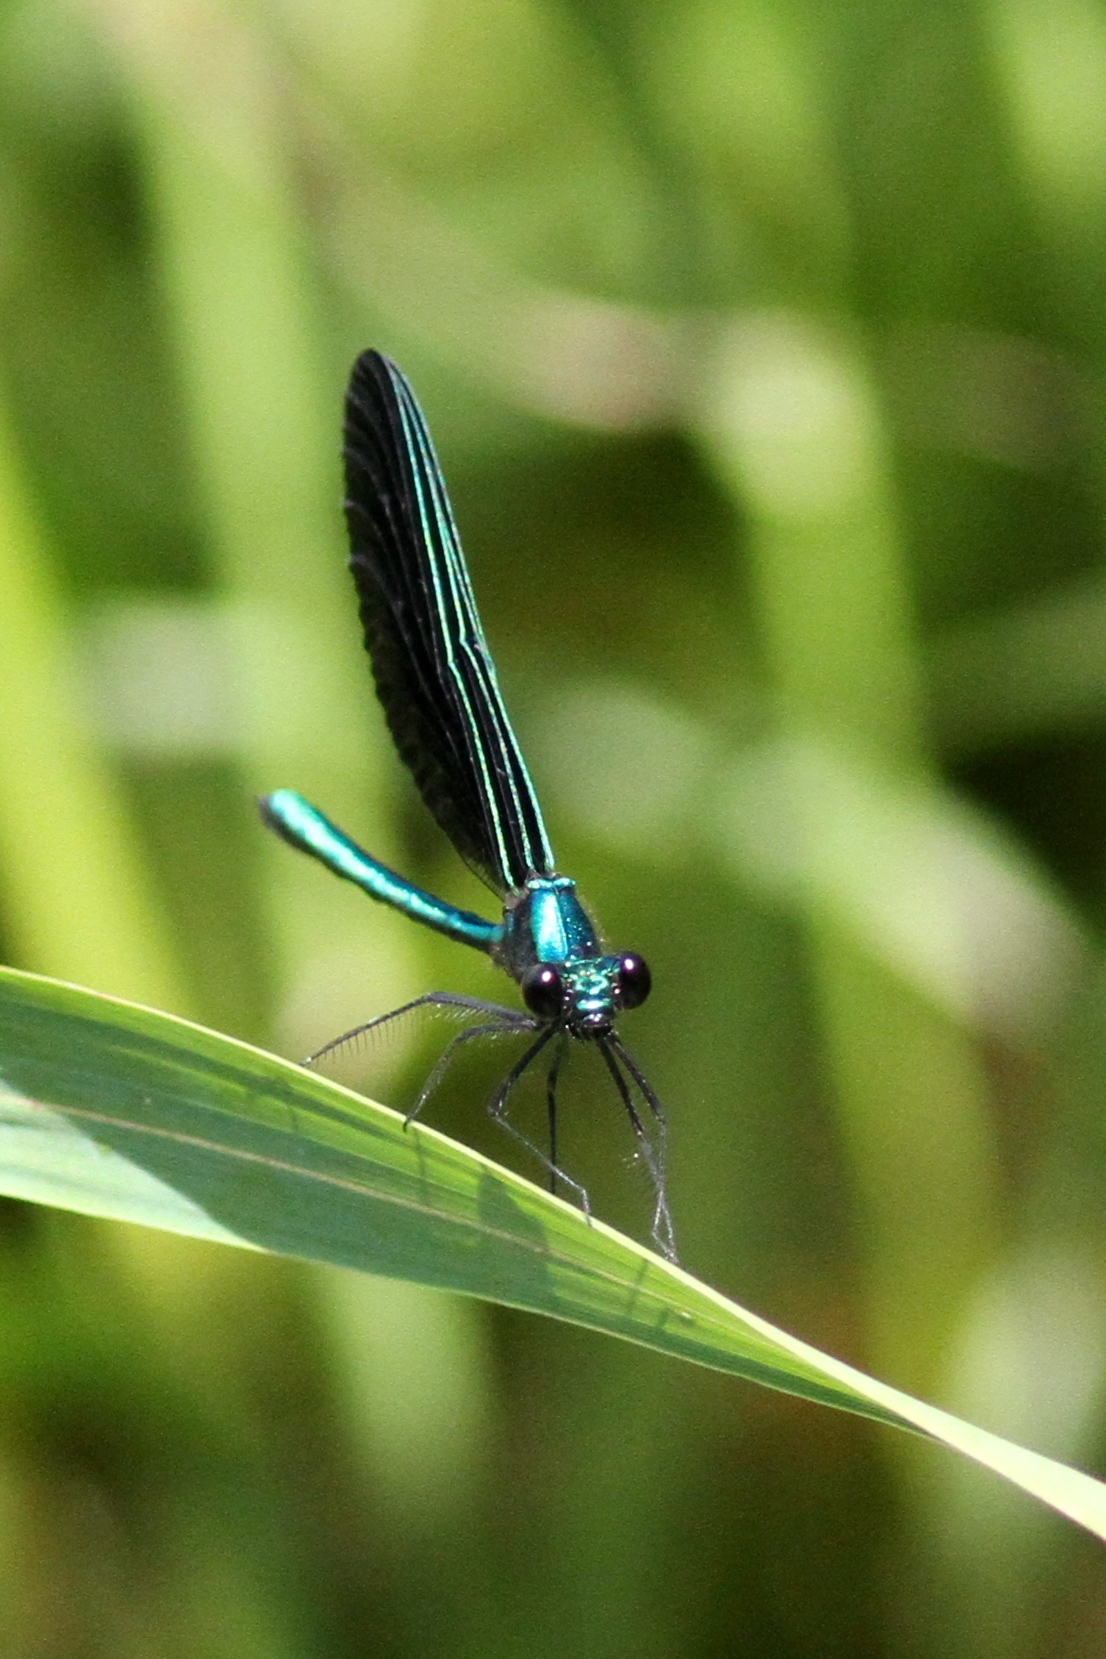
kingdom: Animalia
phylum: Arthropoda
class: Insecta
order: Odonata
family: Calopterygidae
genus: Calopteryx
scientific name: Calopteryx maculata
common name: Ebony jewelwing
